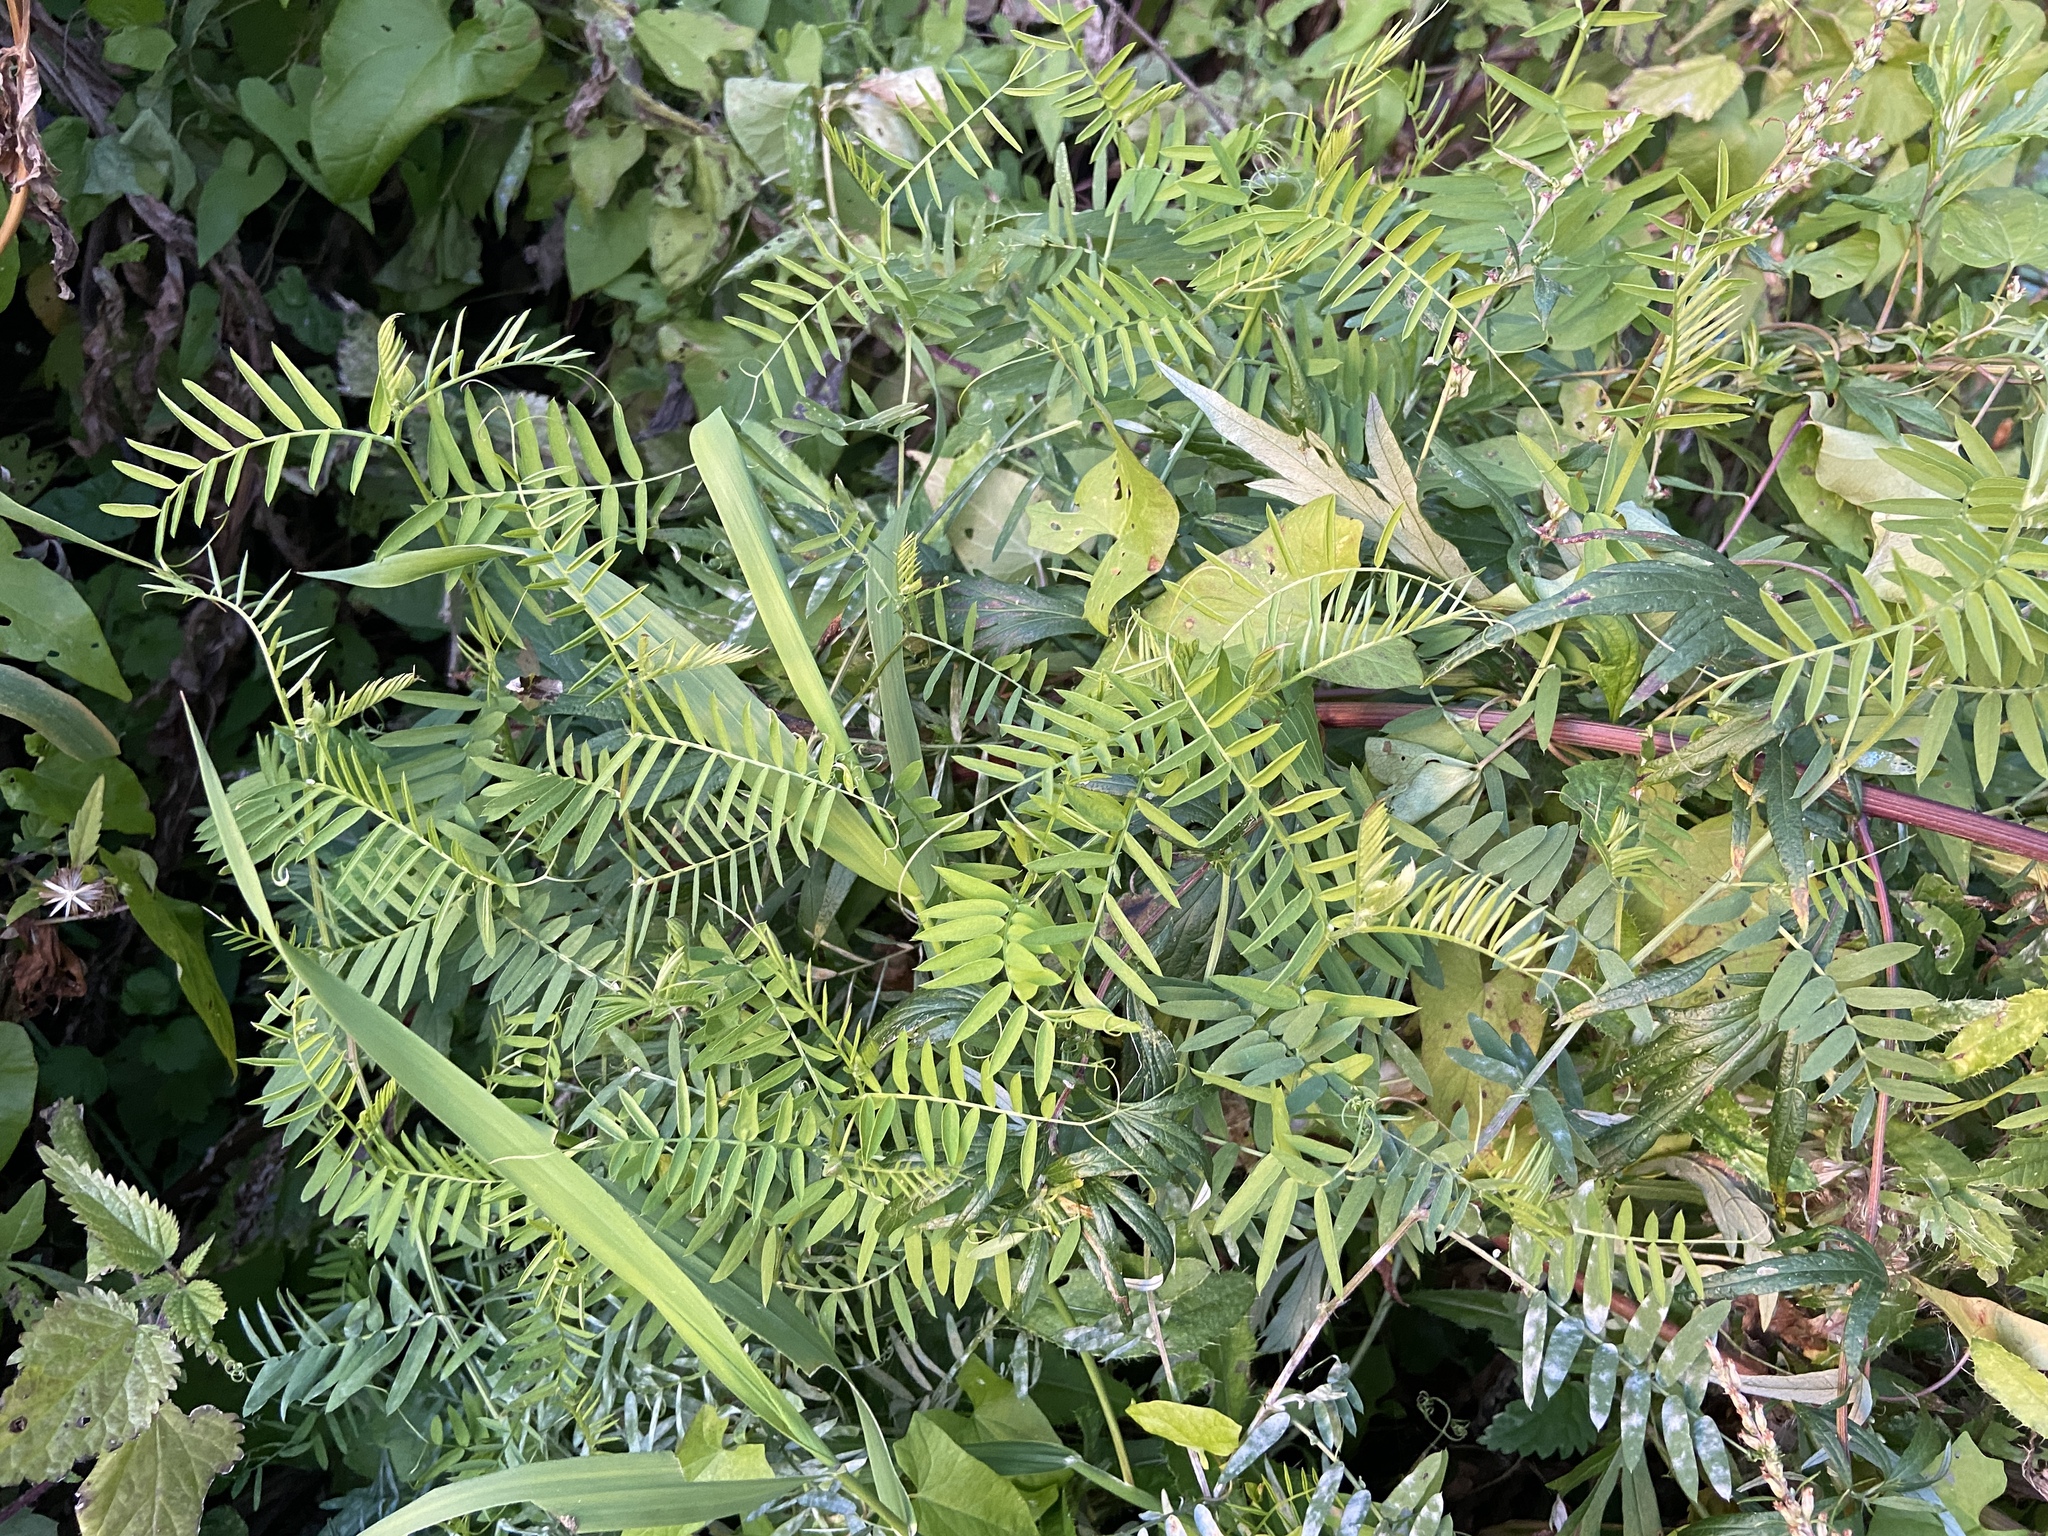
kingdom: Plantae
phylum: Tracheophyta
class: Magnoliopsida
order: Fabales
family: Fabaceae
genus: Vicia
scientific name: Vicia cracca
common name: Bird vetch
